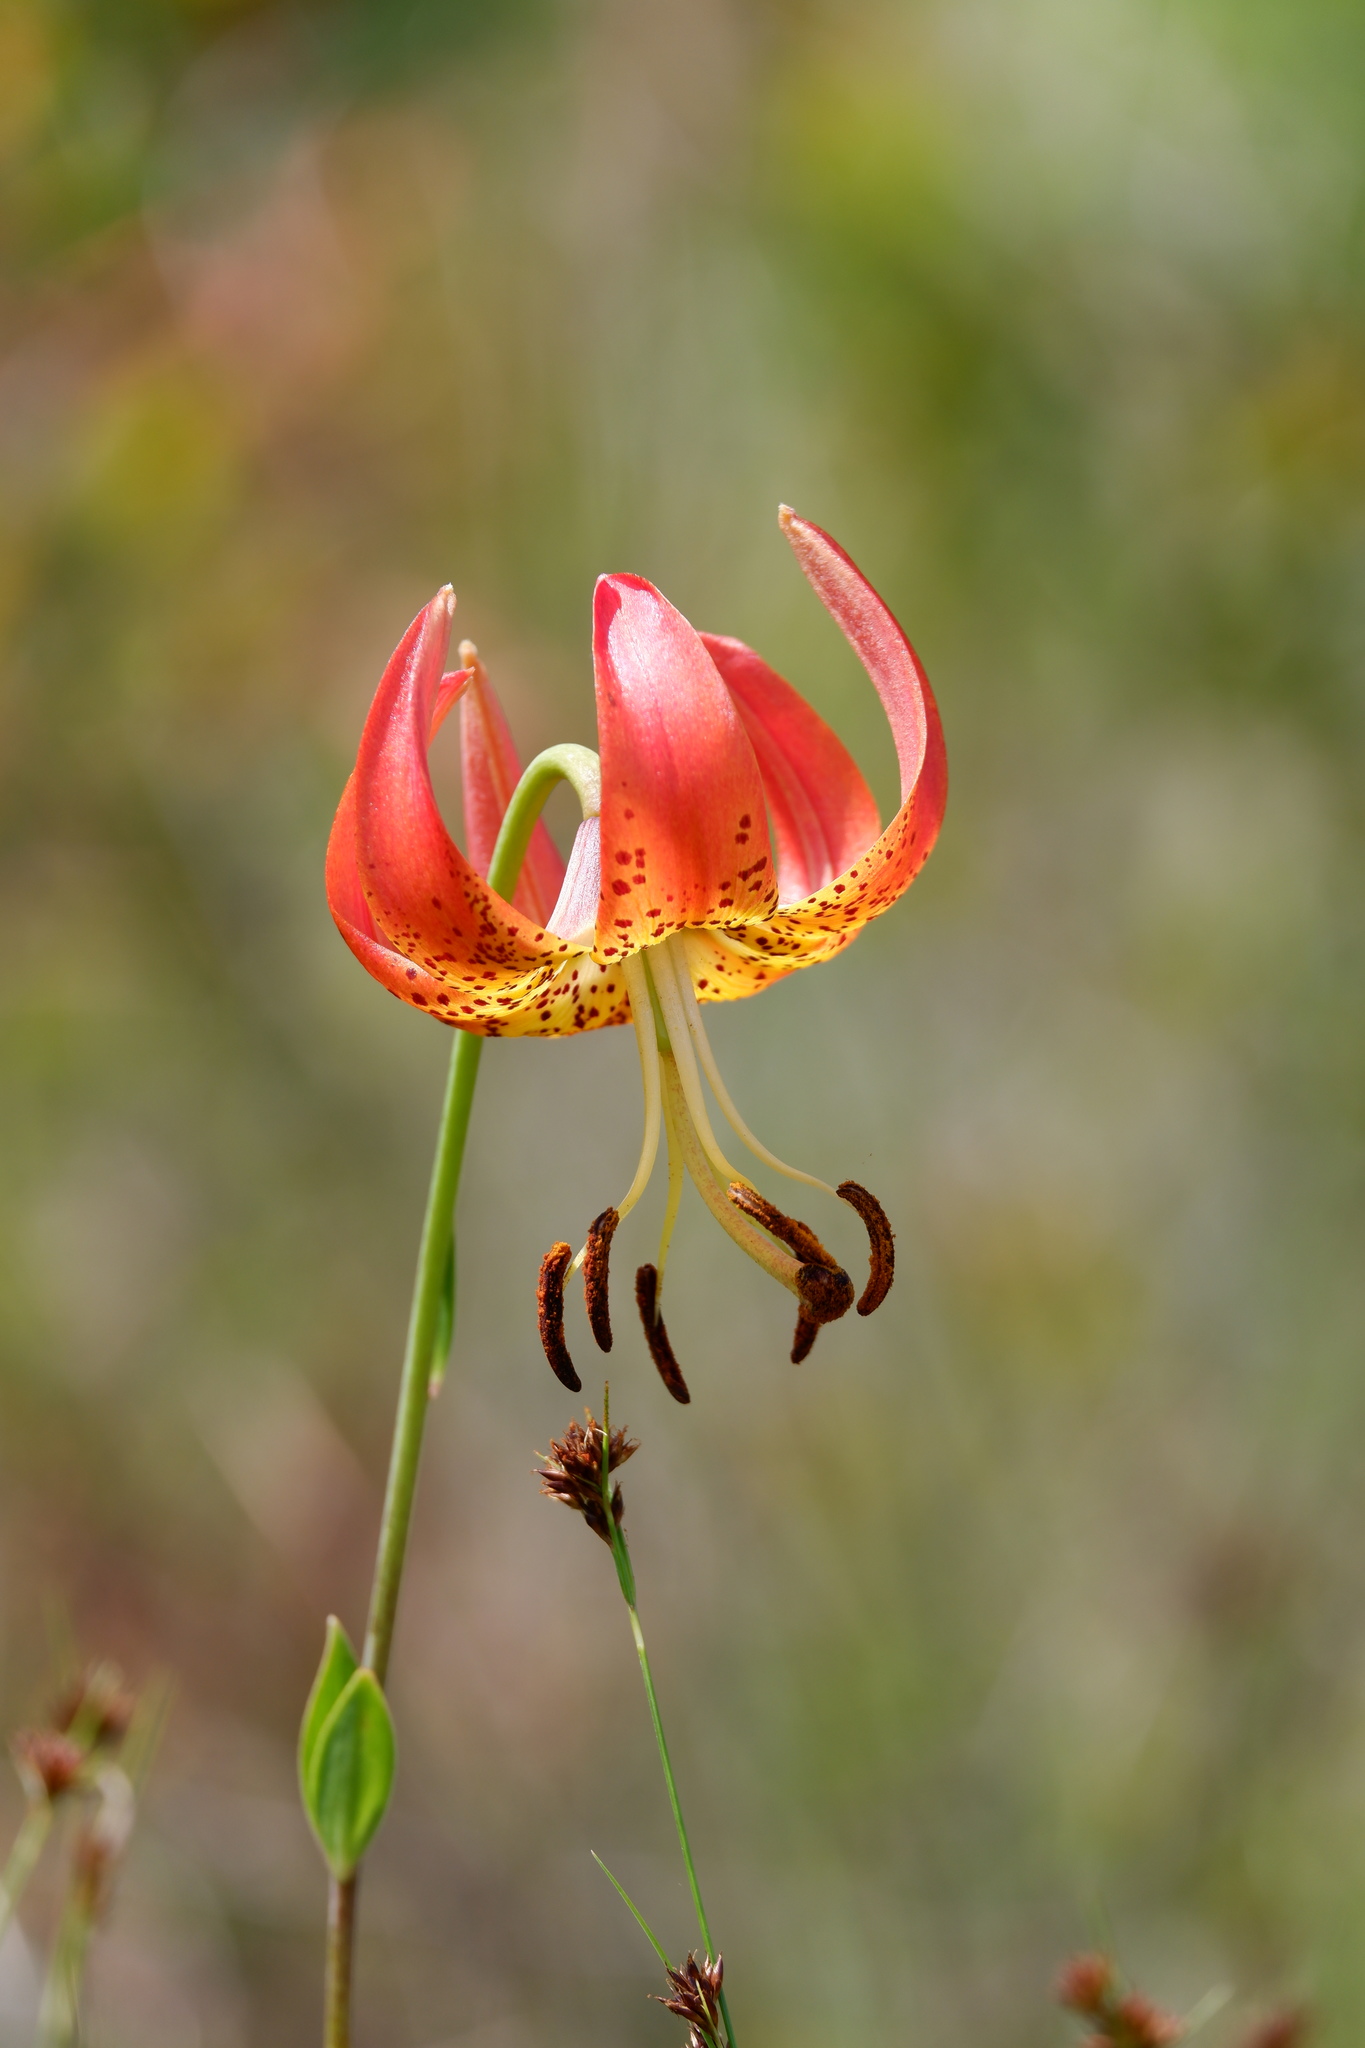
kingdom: Plantae
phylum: Tracheophyta
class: Liliopsida
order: Liliales
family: Liliaceae
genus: Lilium
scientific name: Lilium superbum
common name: American turk's-cap lily
